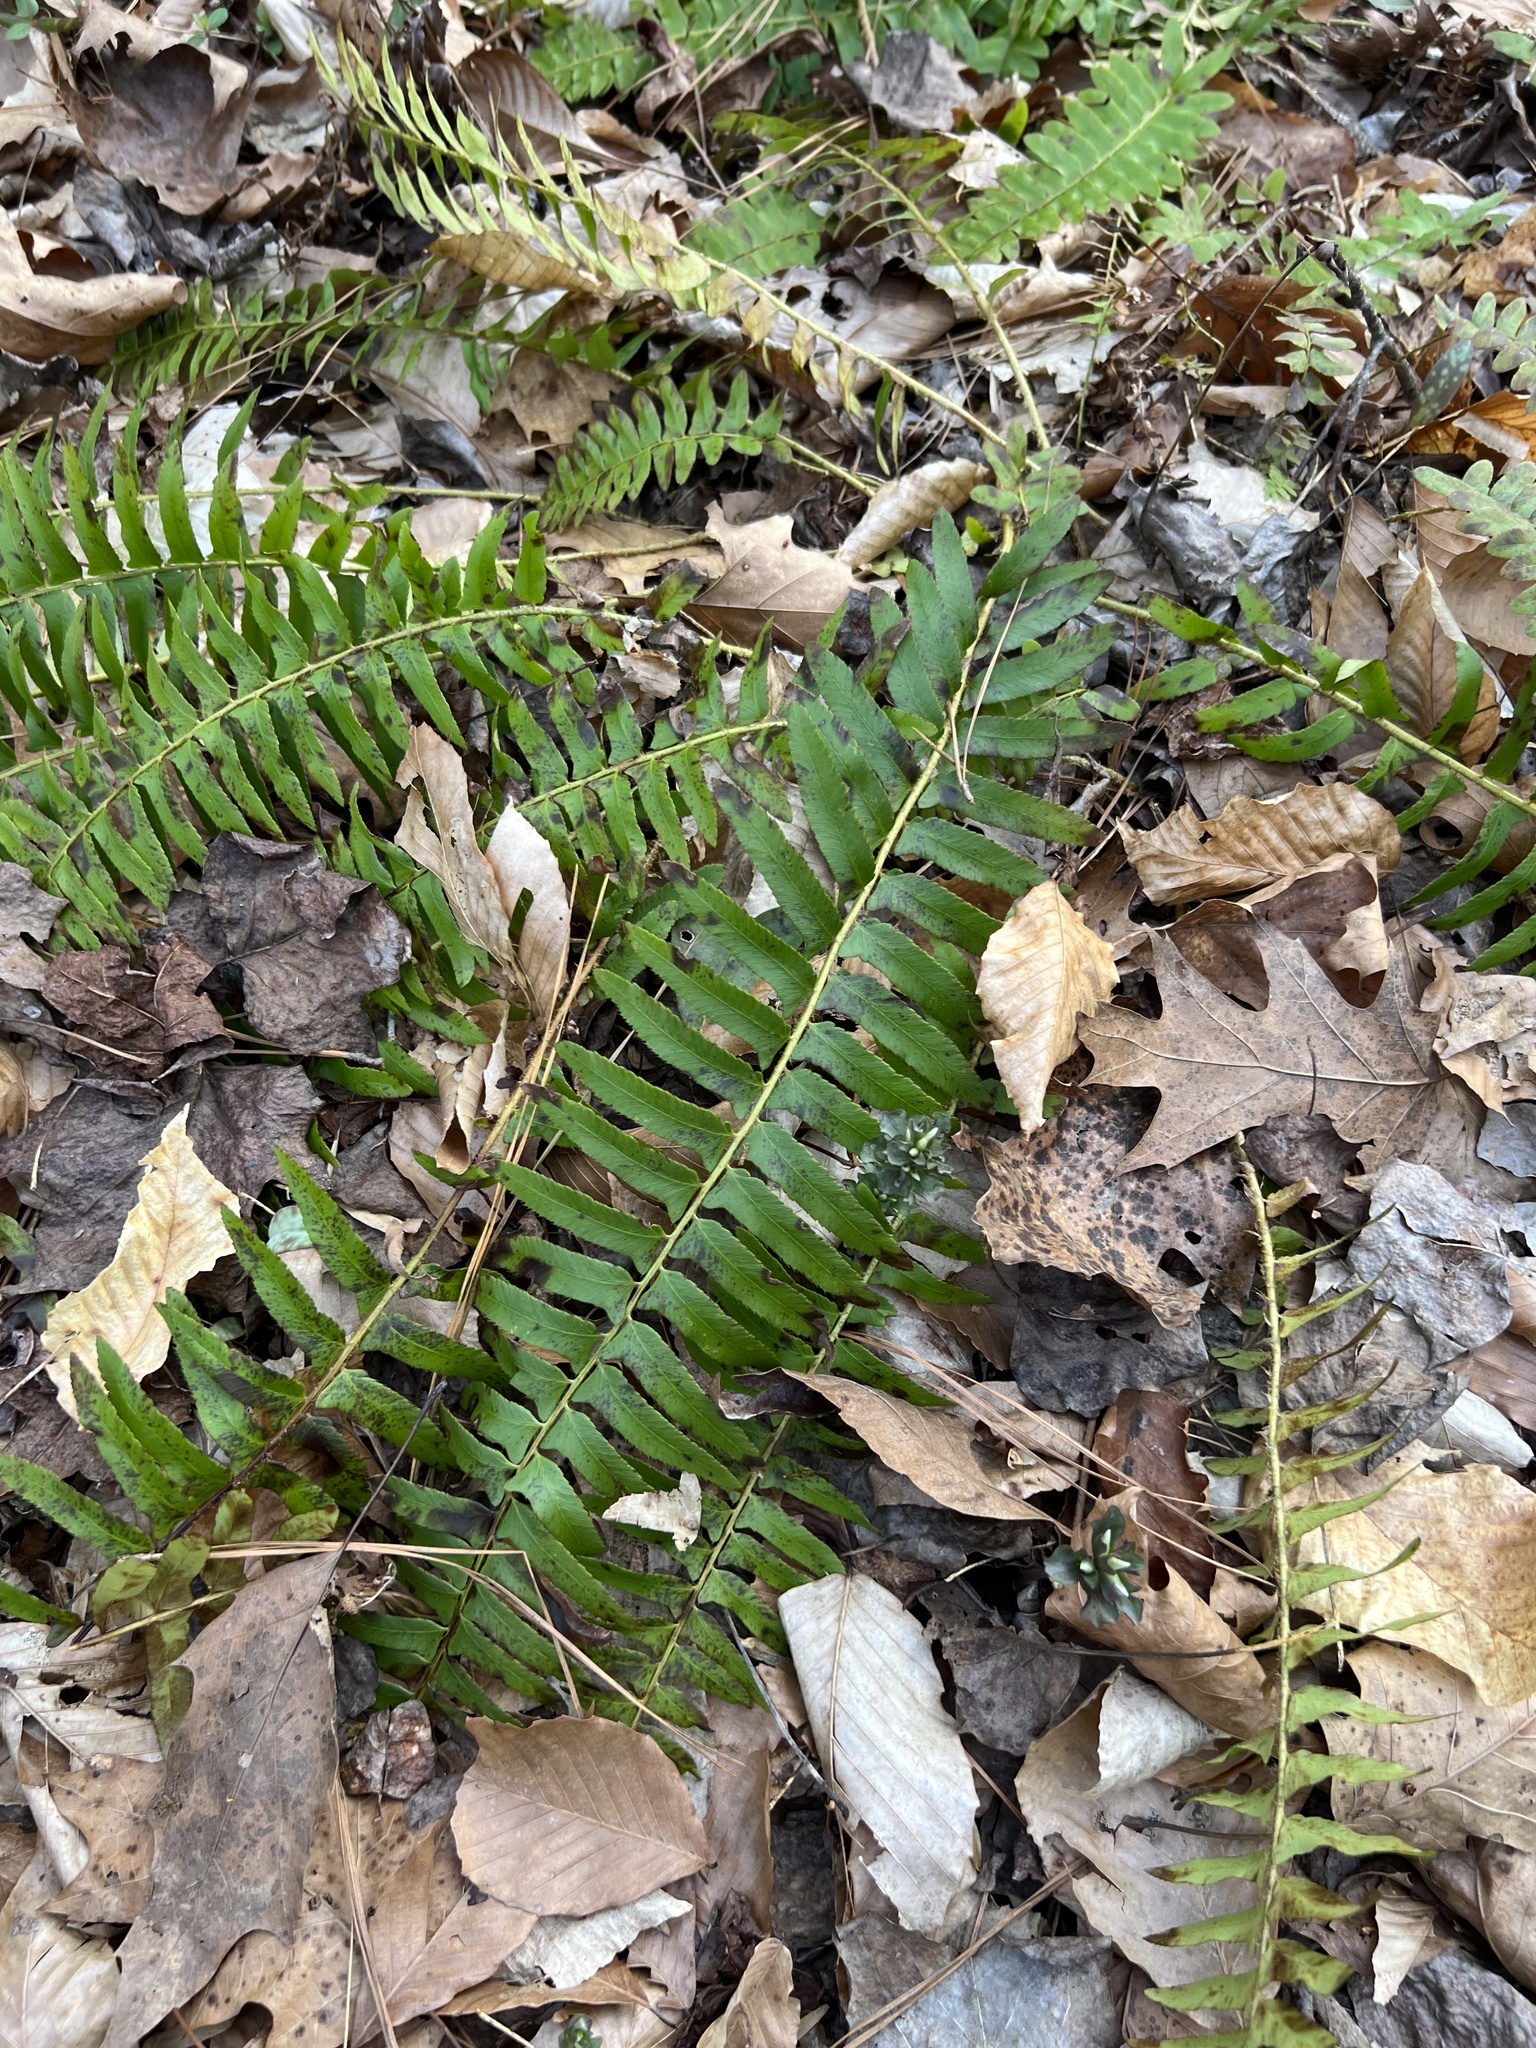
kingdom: Plantae
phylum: Tracheophyta
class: Polypodiopsida
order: Polypodiales
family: Dryopteridaceae
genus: Polystichum
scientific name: Polystichum acrostichoides
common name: Christmas fern
